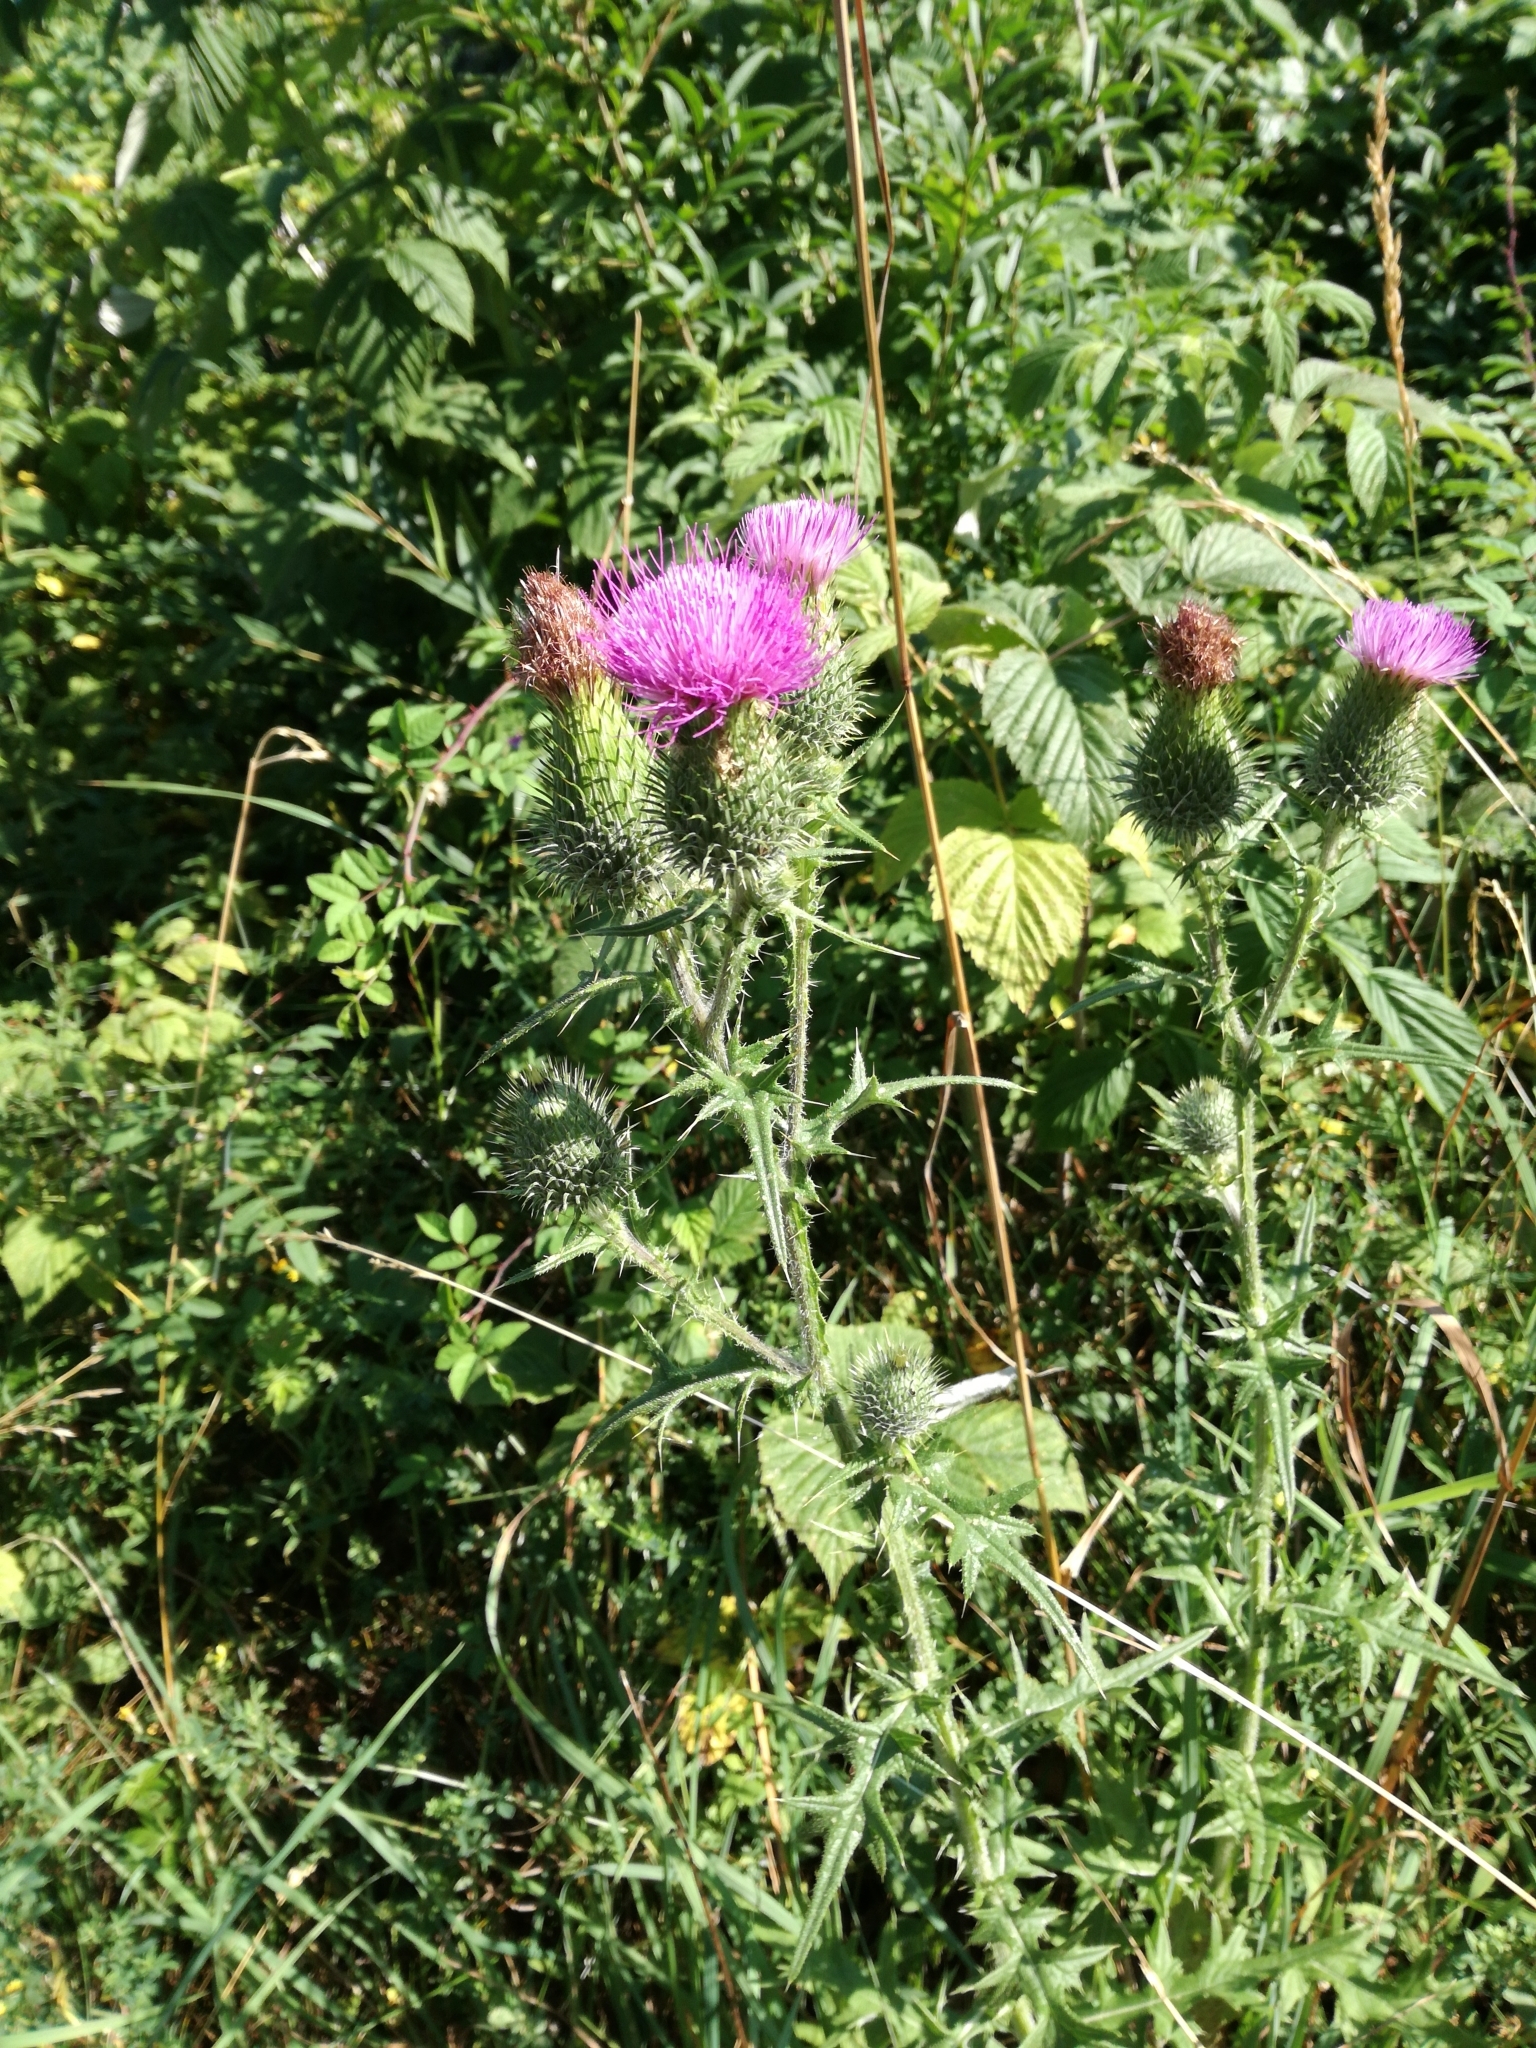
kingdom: Plantae
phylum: Tracheophyta
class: Magnoliopsida
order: Asterales
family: Asteraceae
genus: Cirsium
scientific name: Cirsium vulgare
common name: Bull thistle
